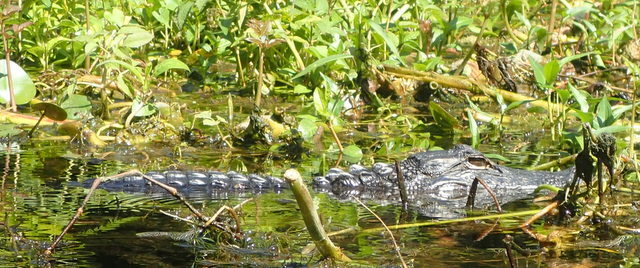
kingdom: Animalia
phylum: Chordata
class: Crocodylia
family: Alligatoridae
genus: Alligator
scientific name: Alligator mississippiensis
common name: American alligator
